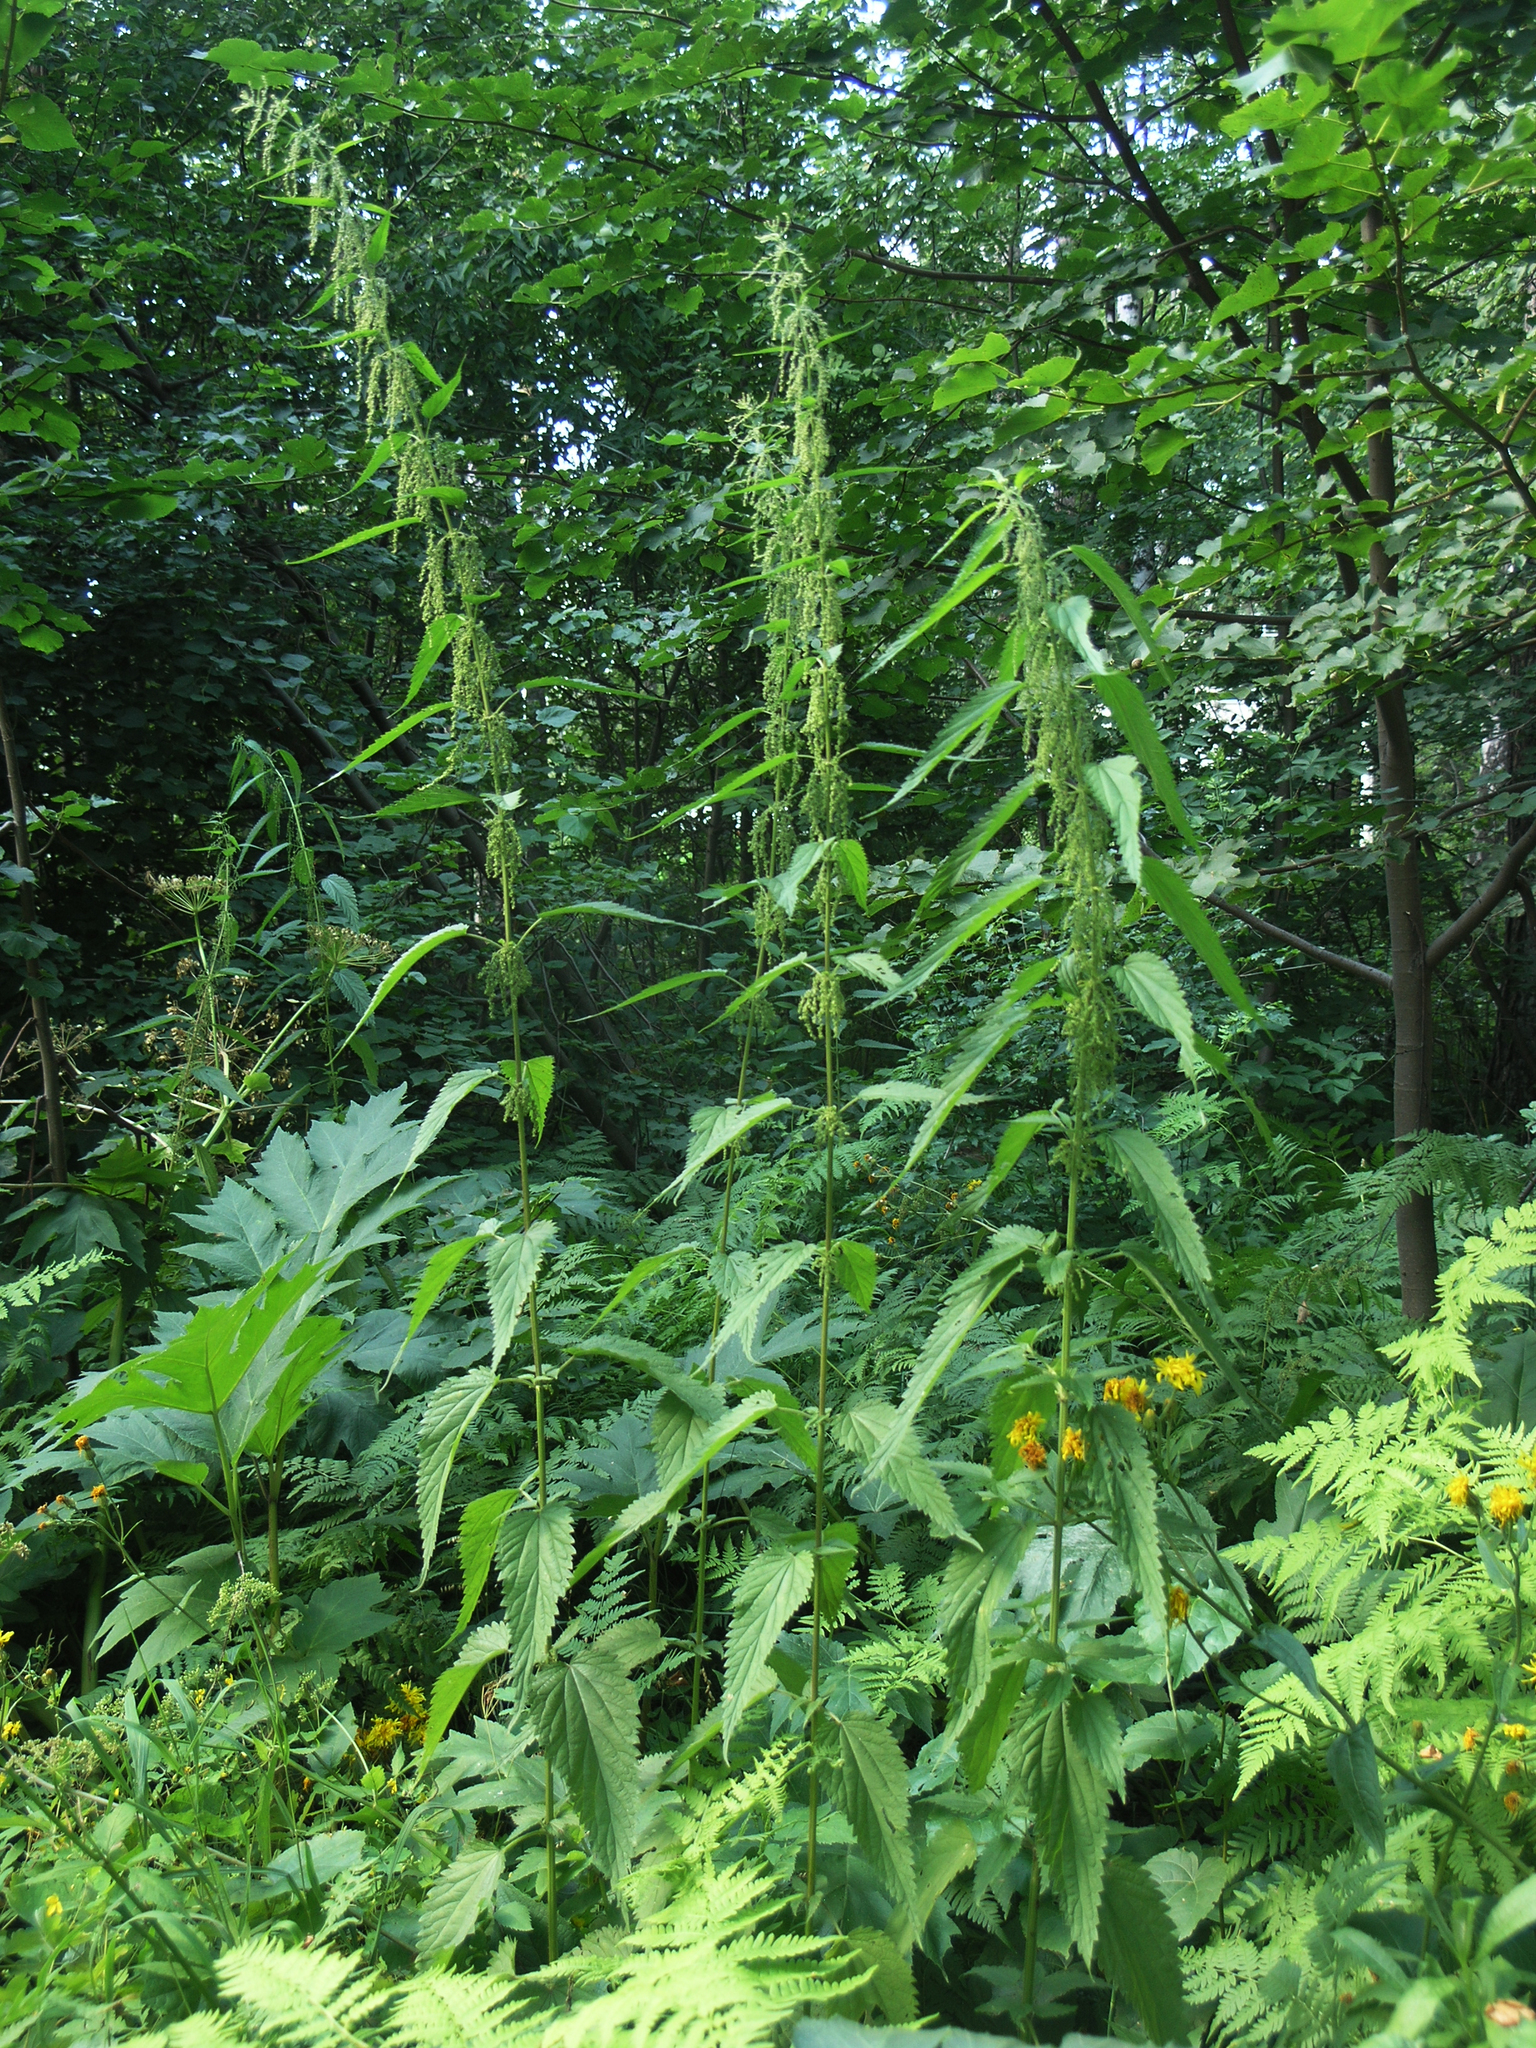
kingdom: Plantae
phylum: Tracheophyta
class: Magnoliopsida
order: Rosales
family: Urticaceae
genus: Urtica
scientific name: Urtica dioica
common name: Common nettle
